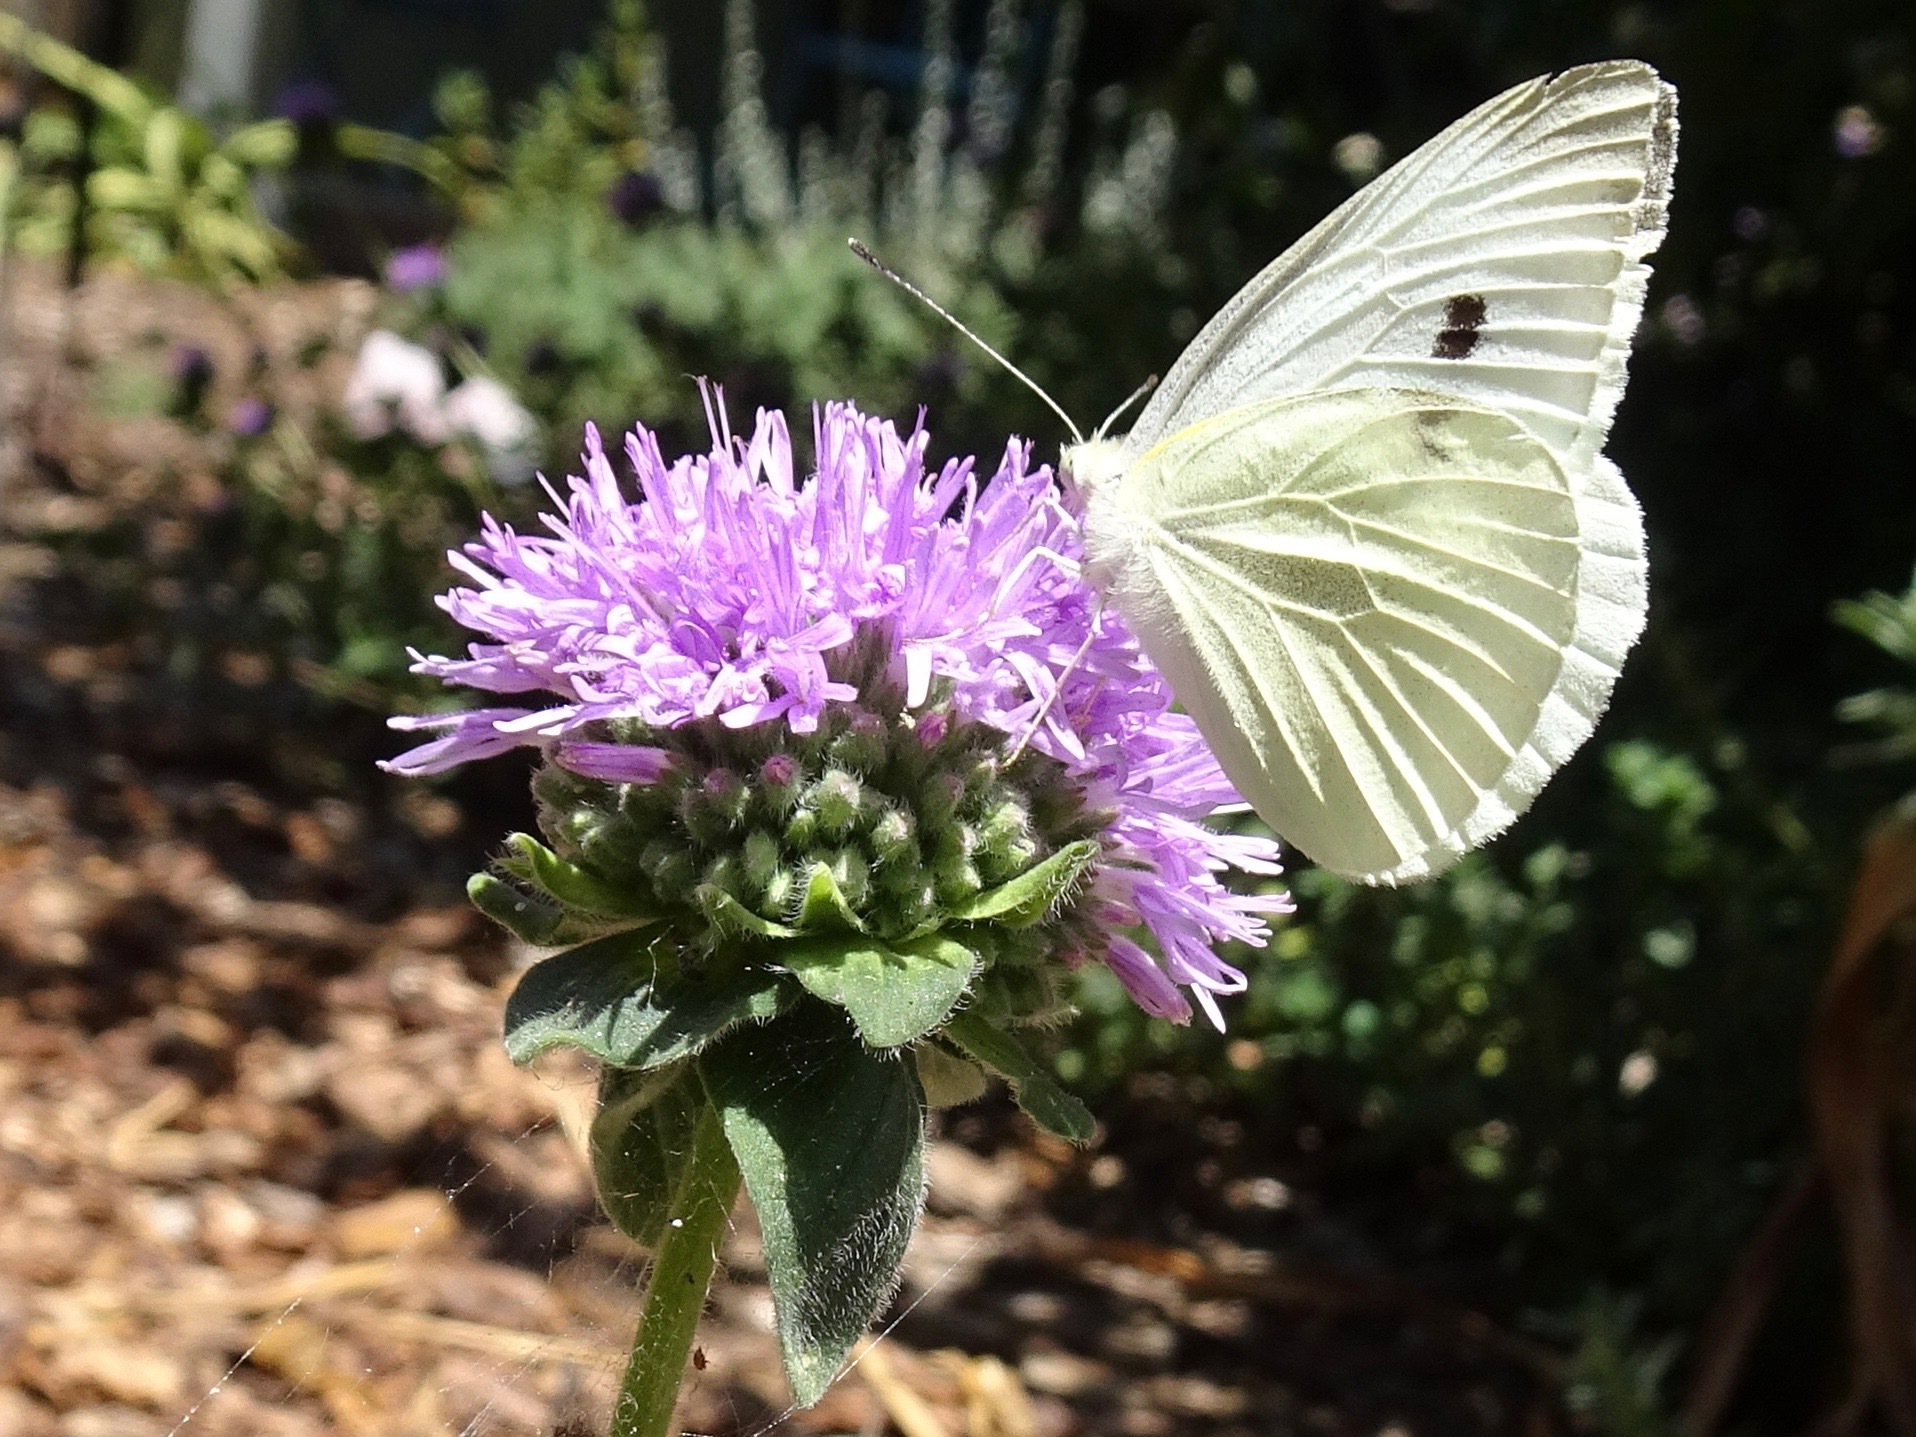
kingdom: Animalia
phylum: Arthropoda
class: Insecta
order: Lepidoptera
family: Pieridae
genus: Pieris
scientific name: Pieris rapae
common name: Small white
